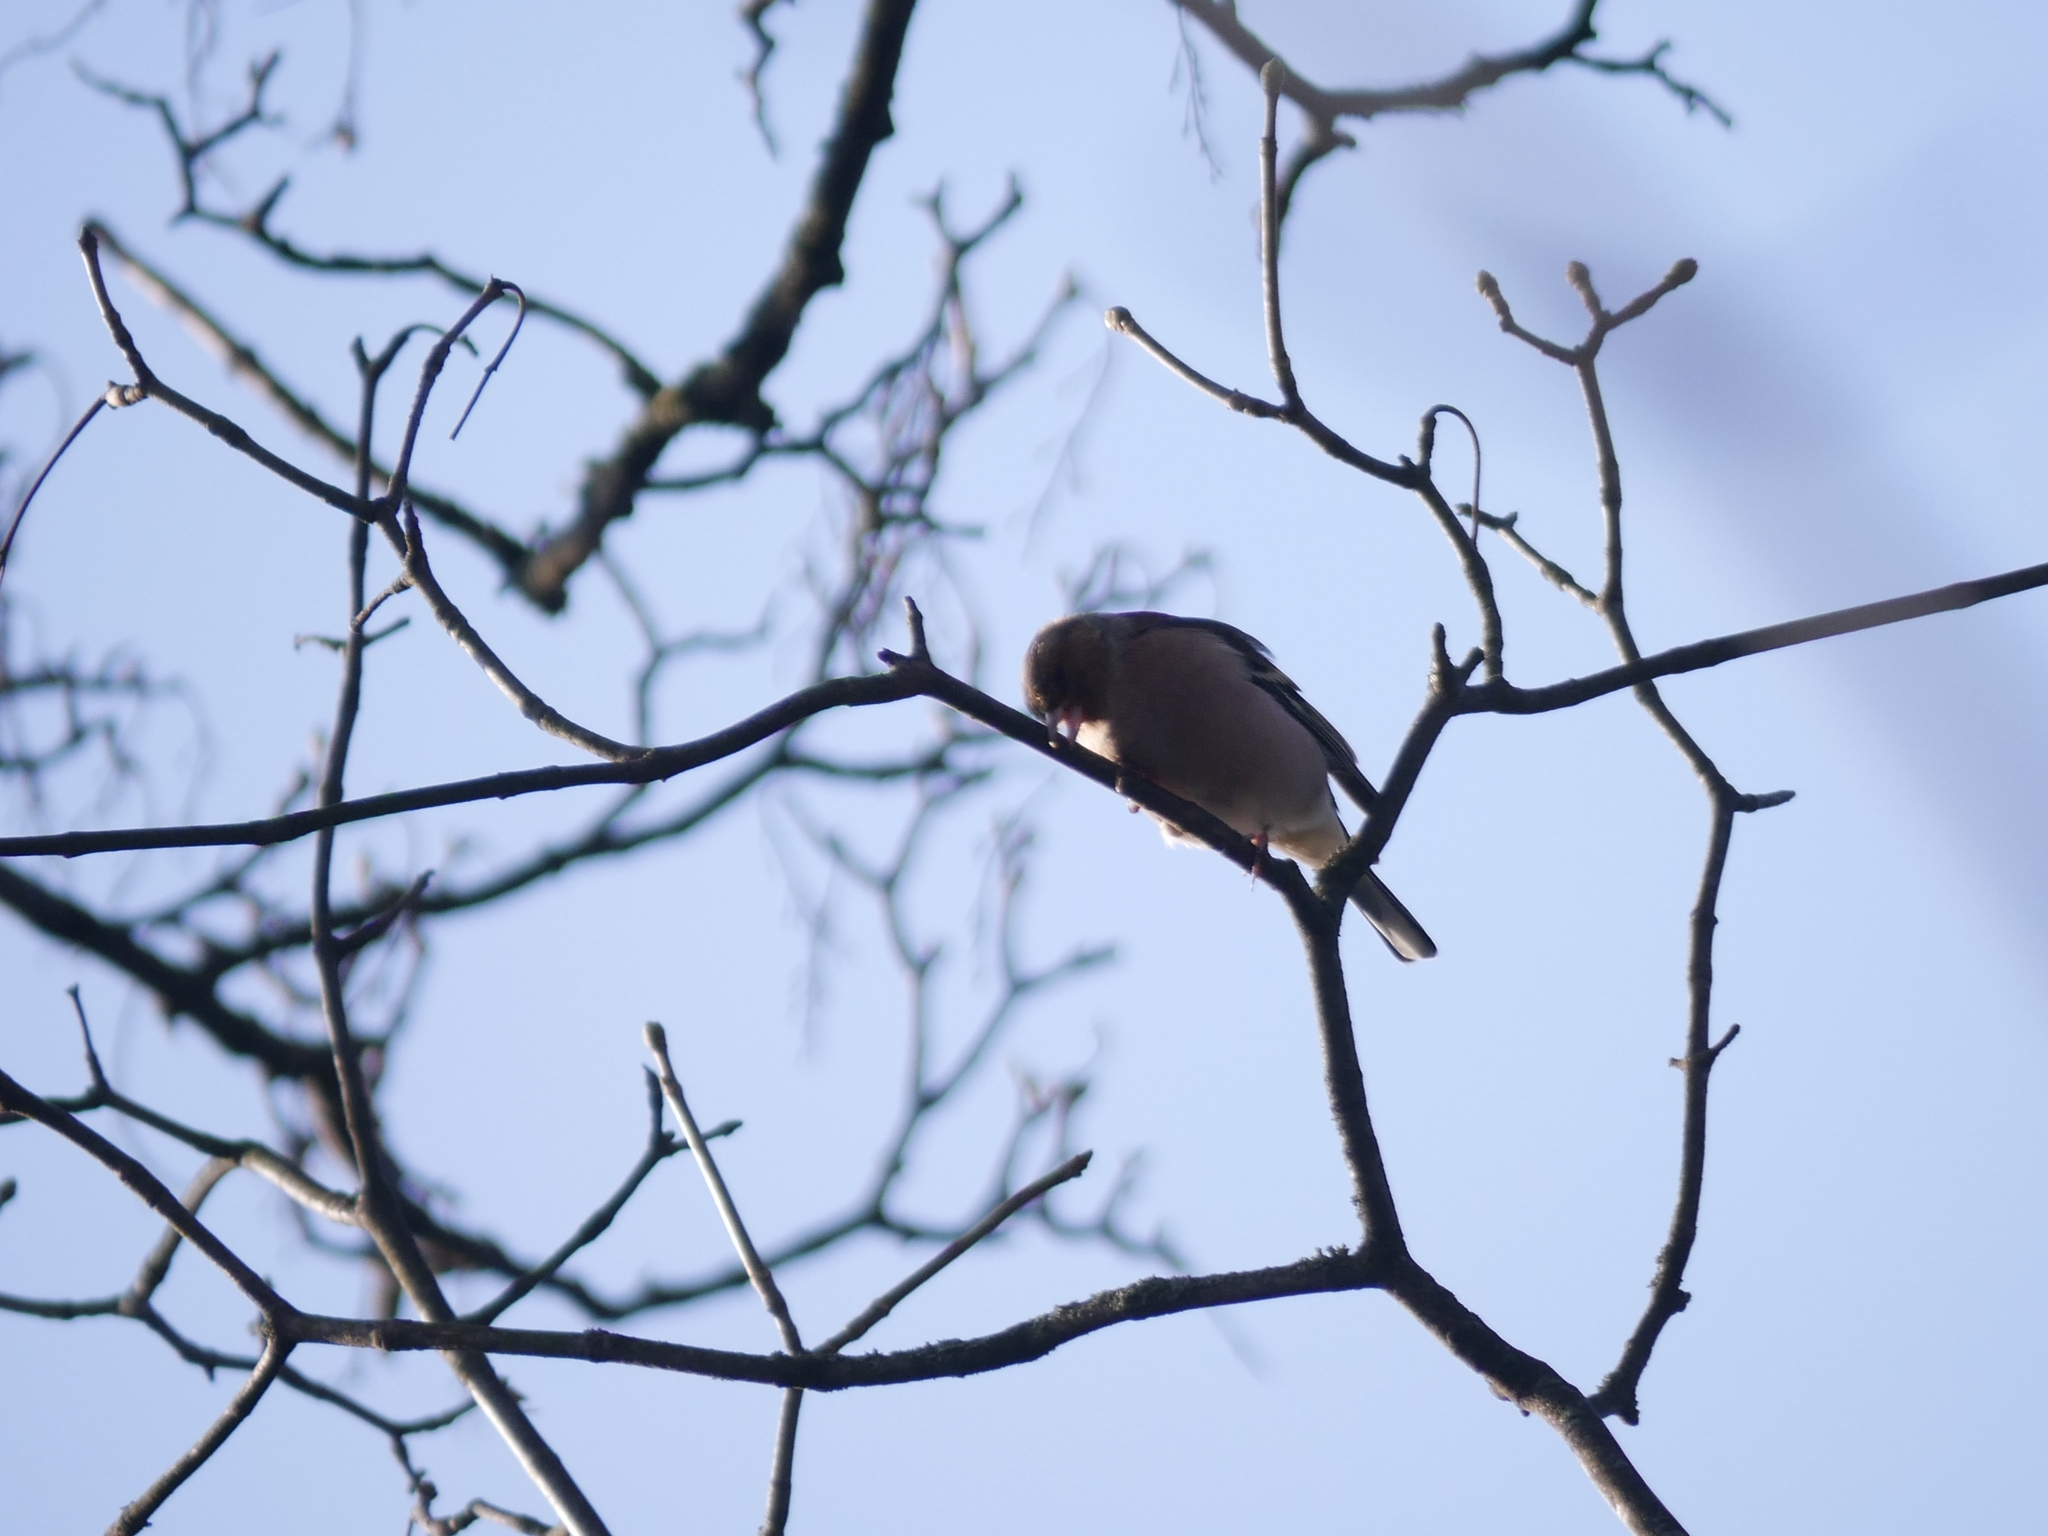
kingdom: Animalia
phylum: Chordata
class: Aves
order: Passeriformes
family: Fringillidae
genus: Fringilla
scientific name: Fringilla coelebs
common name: Common chaffinch
